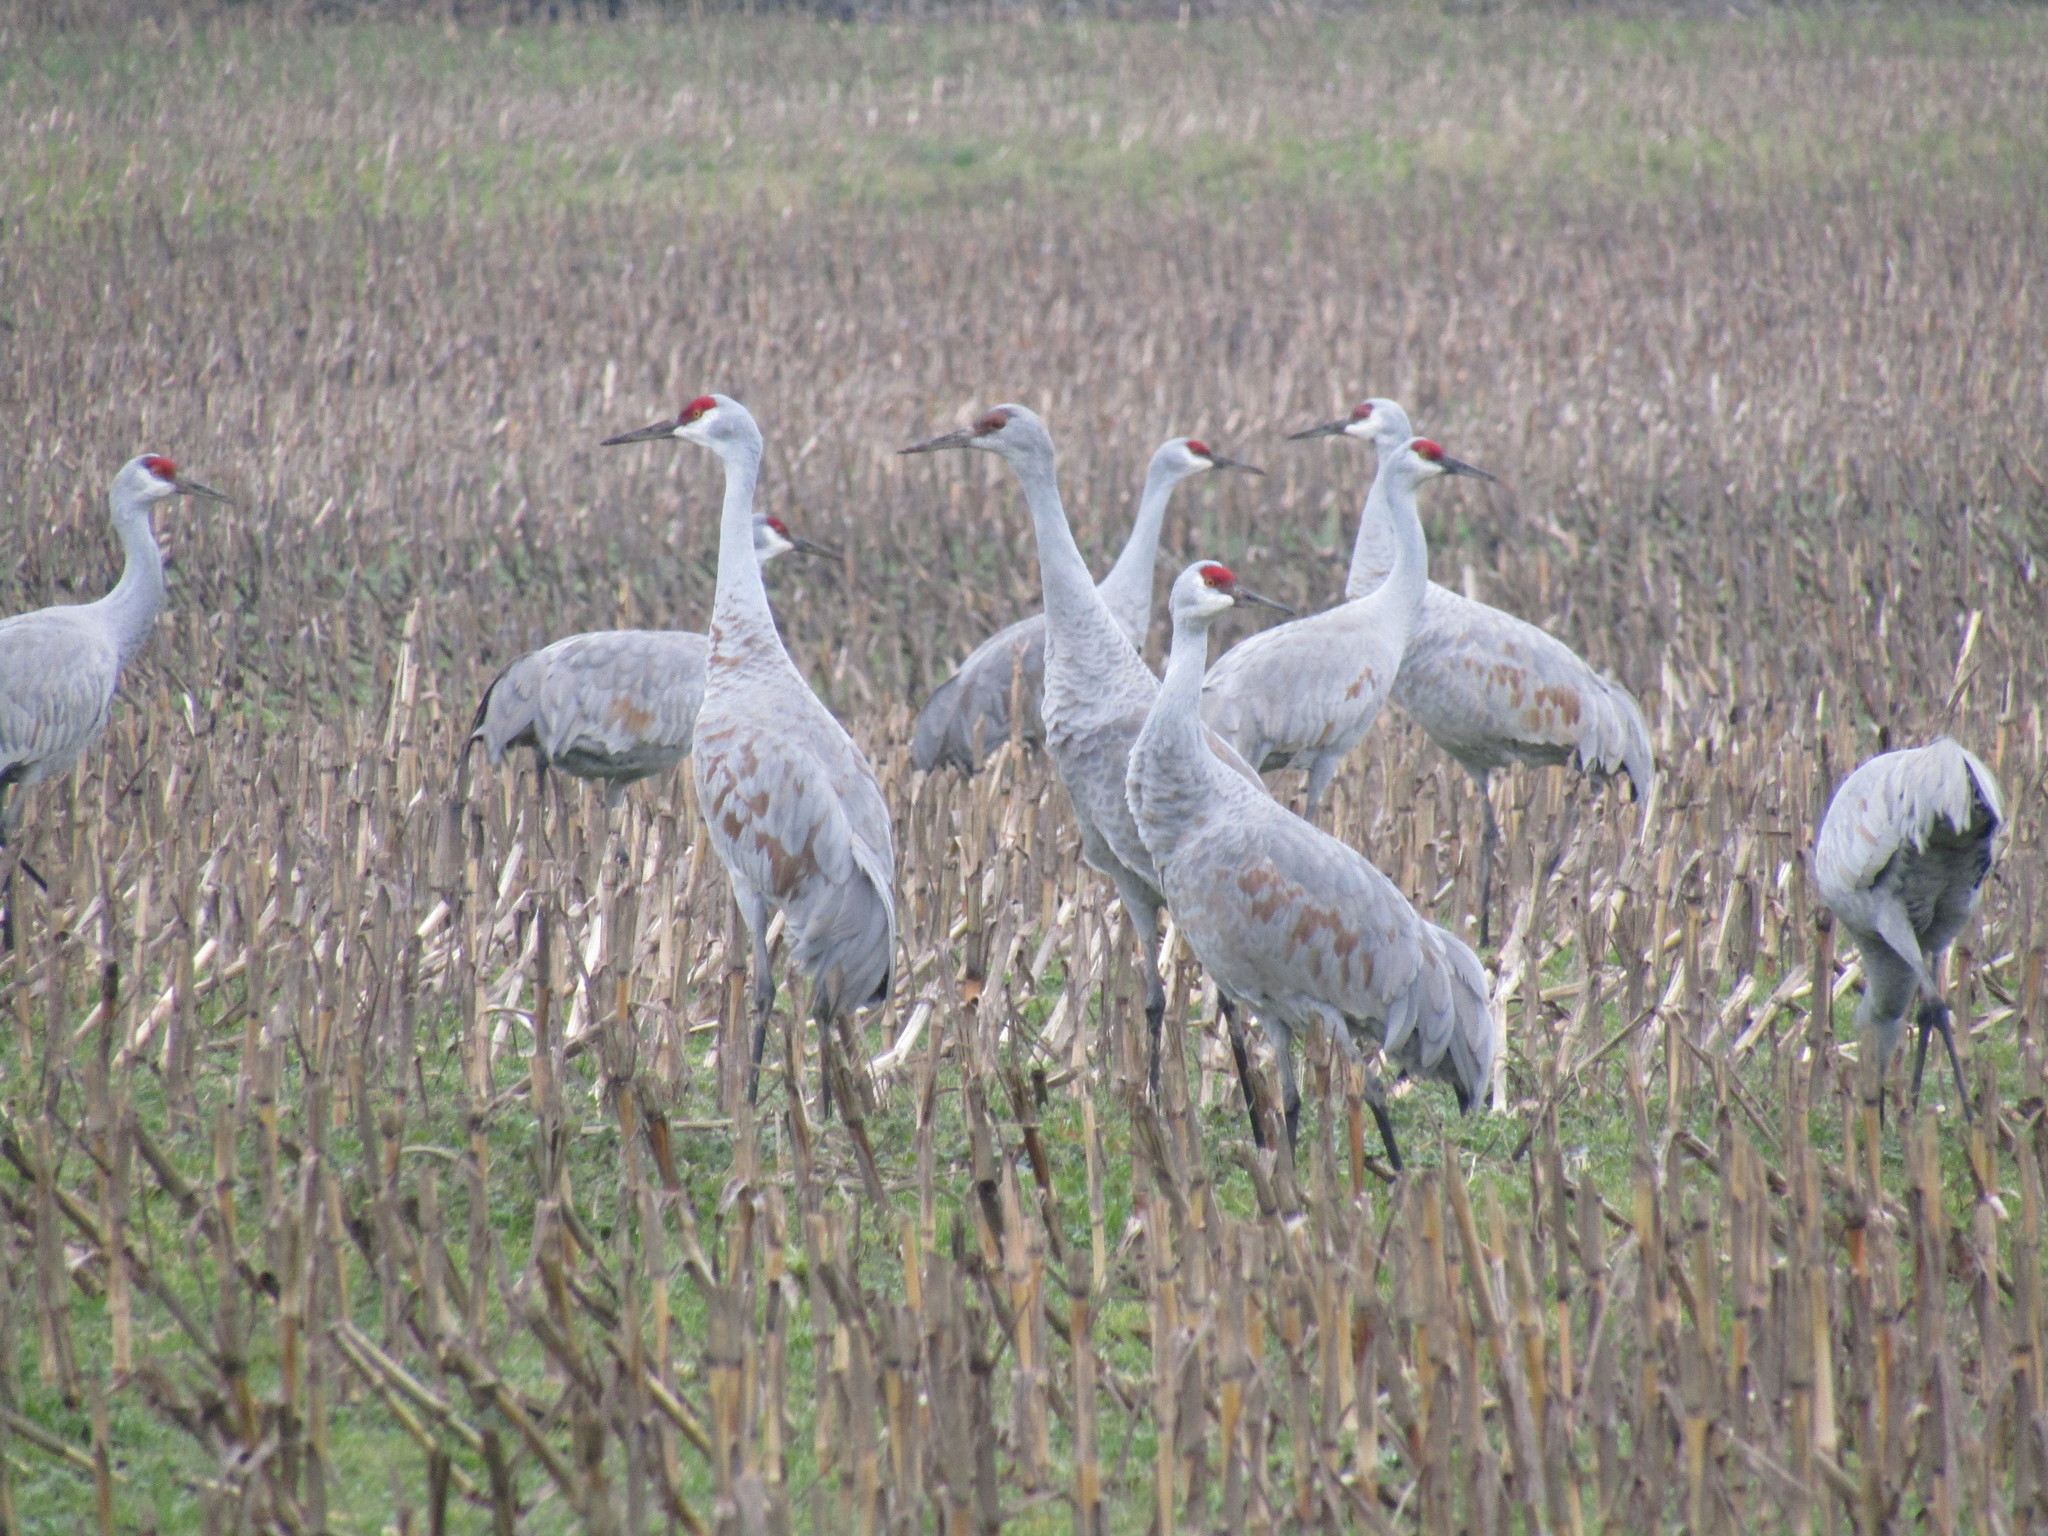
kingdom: Animalia
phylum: Chordata
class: Aves
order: Gruiformes
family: Gruidae
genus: Grus
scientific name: Grus canadensis
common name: Sandhill crane
